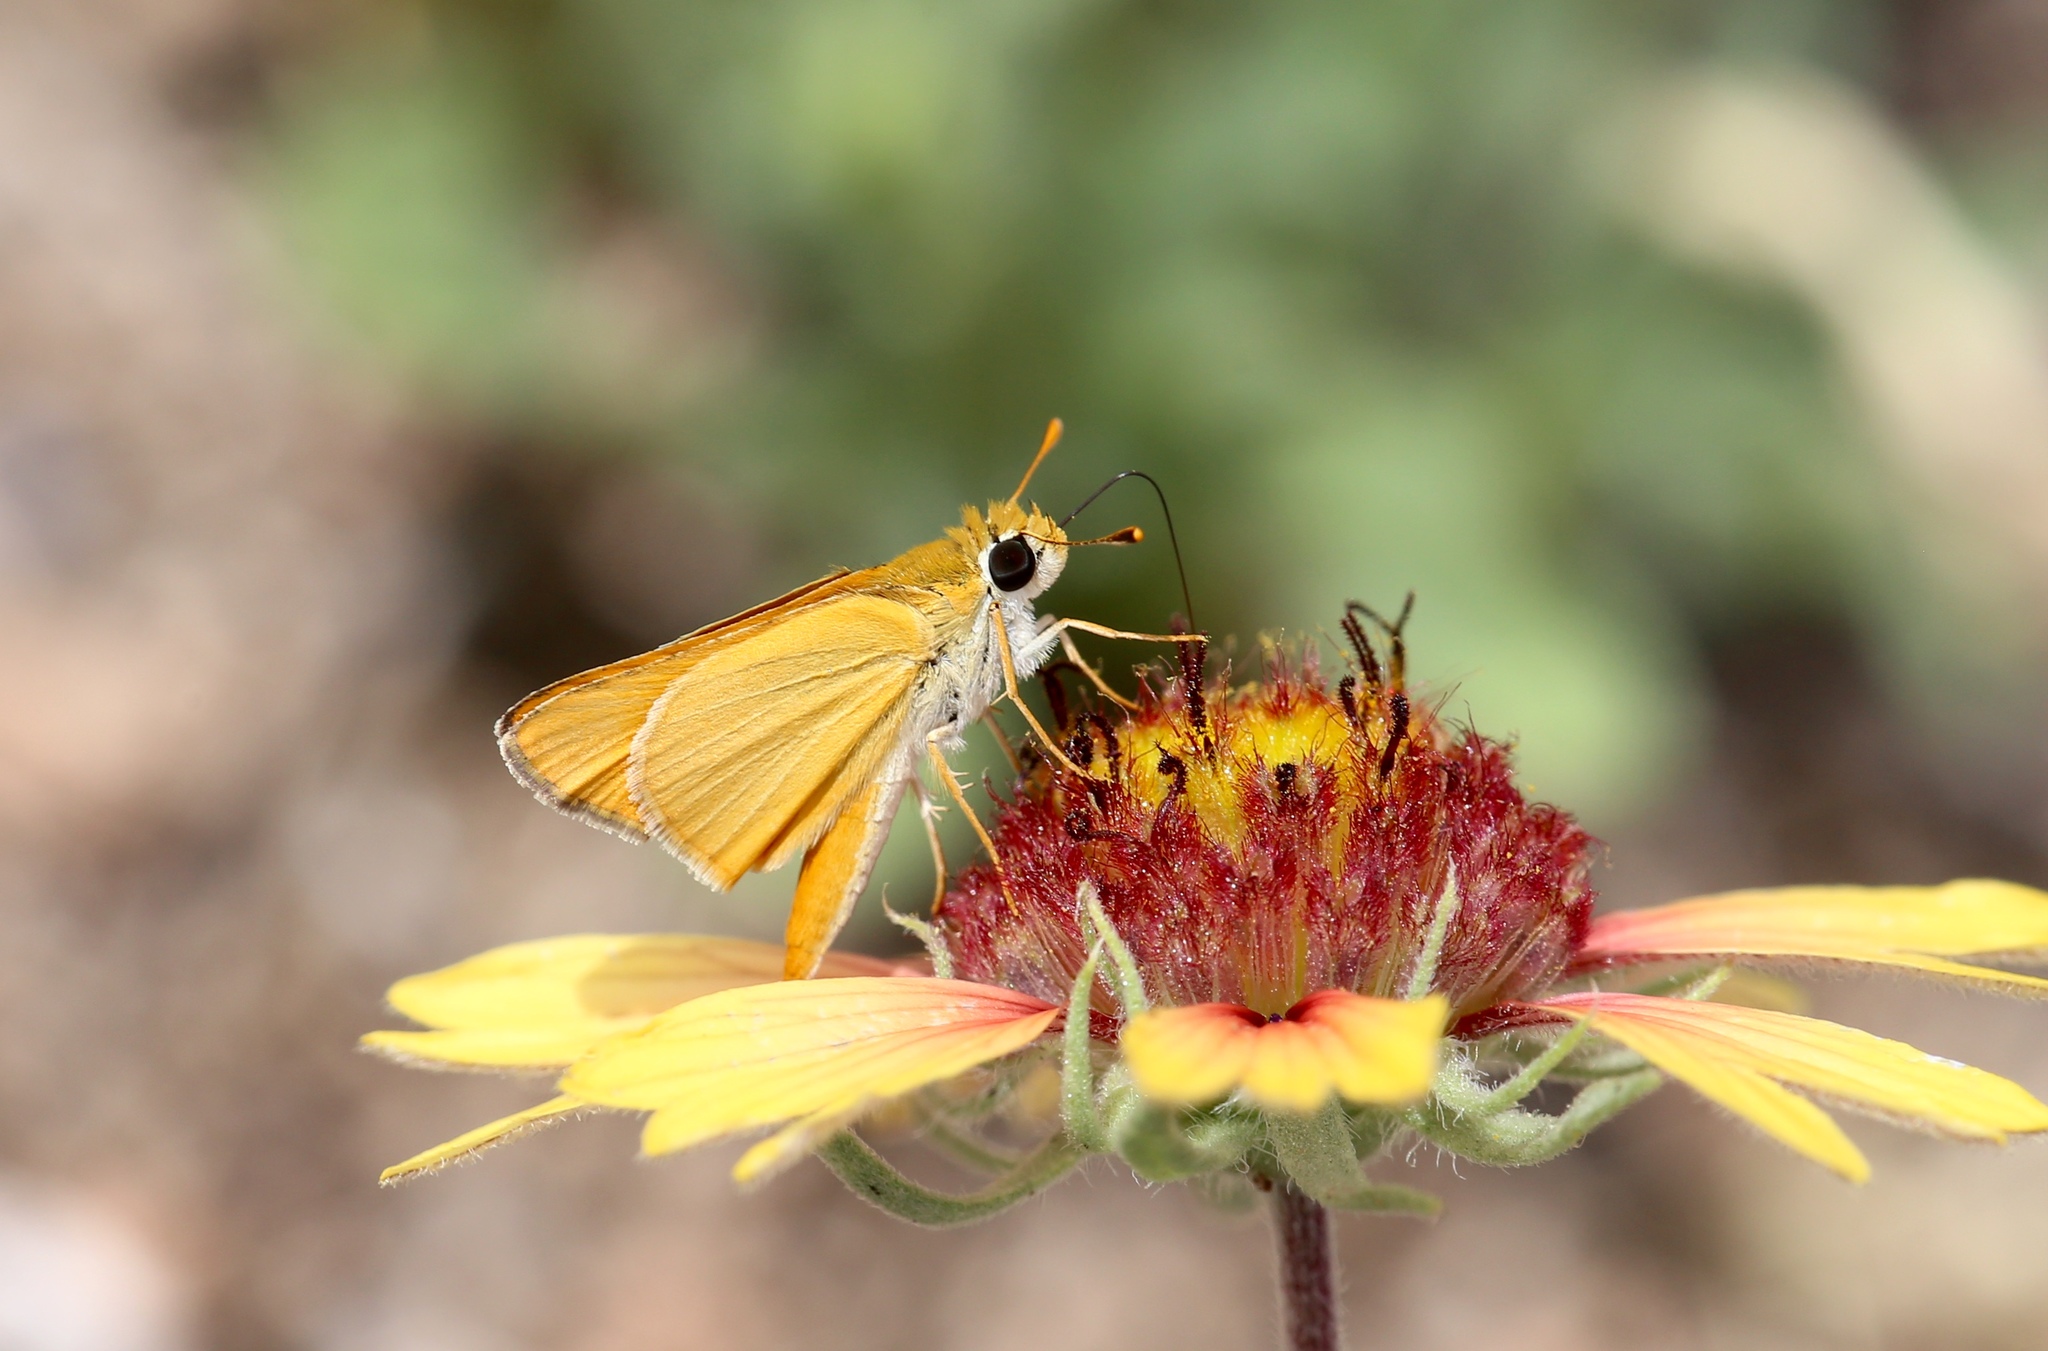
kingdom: Animalia
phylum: Arthropoda
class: Insecta
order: Lepidoptera
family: Hesperiidae
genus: Copaeodes
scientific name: Copaeodes aurantiaca
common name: Orange skipperling
